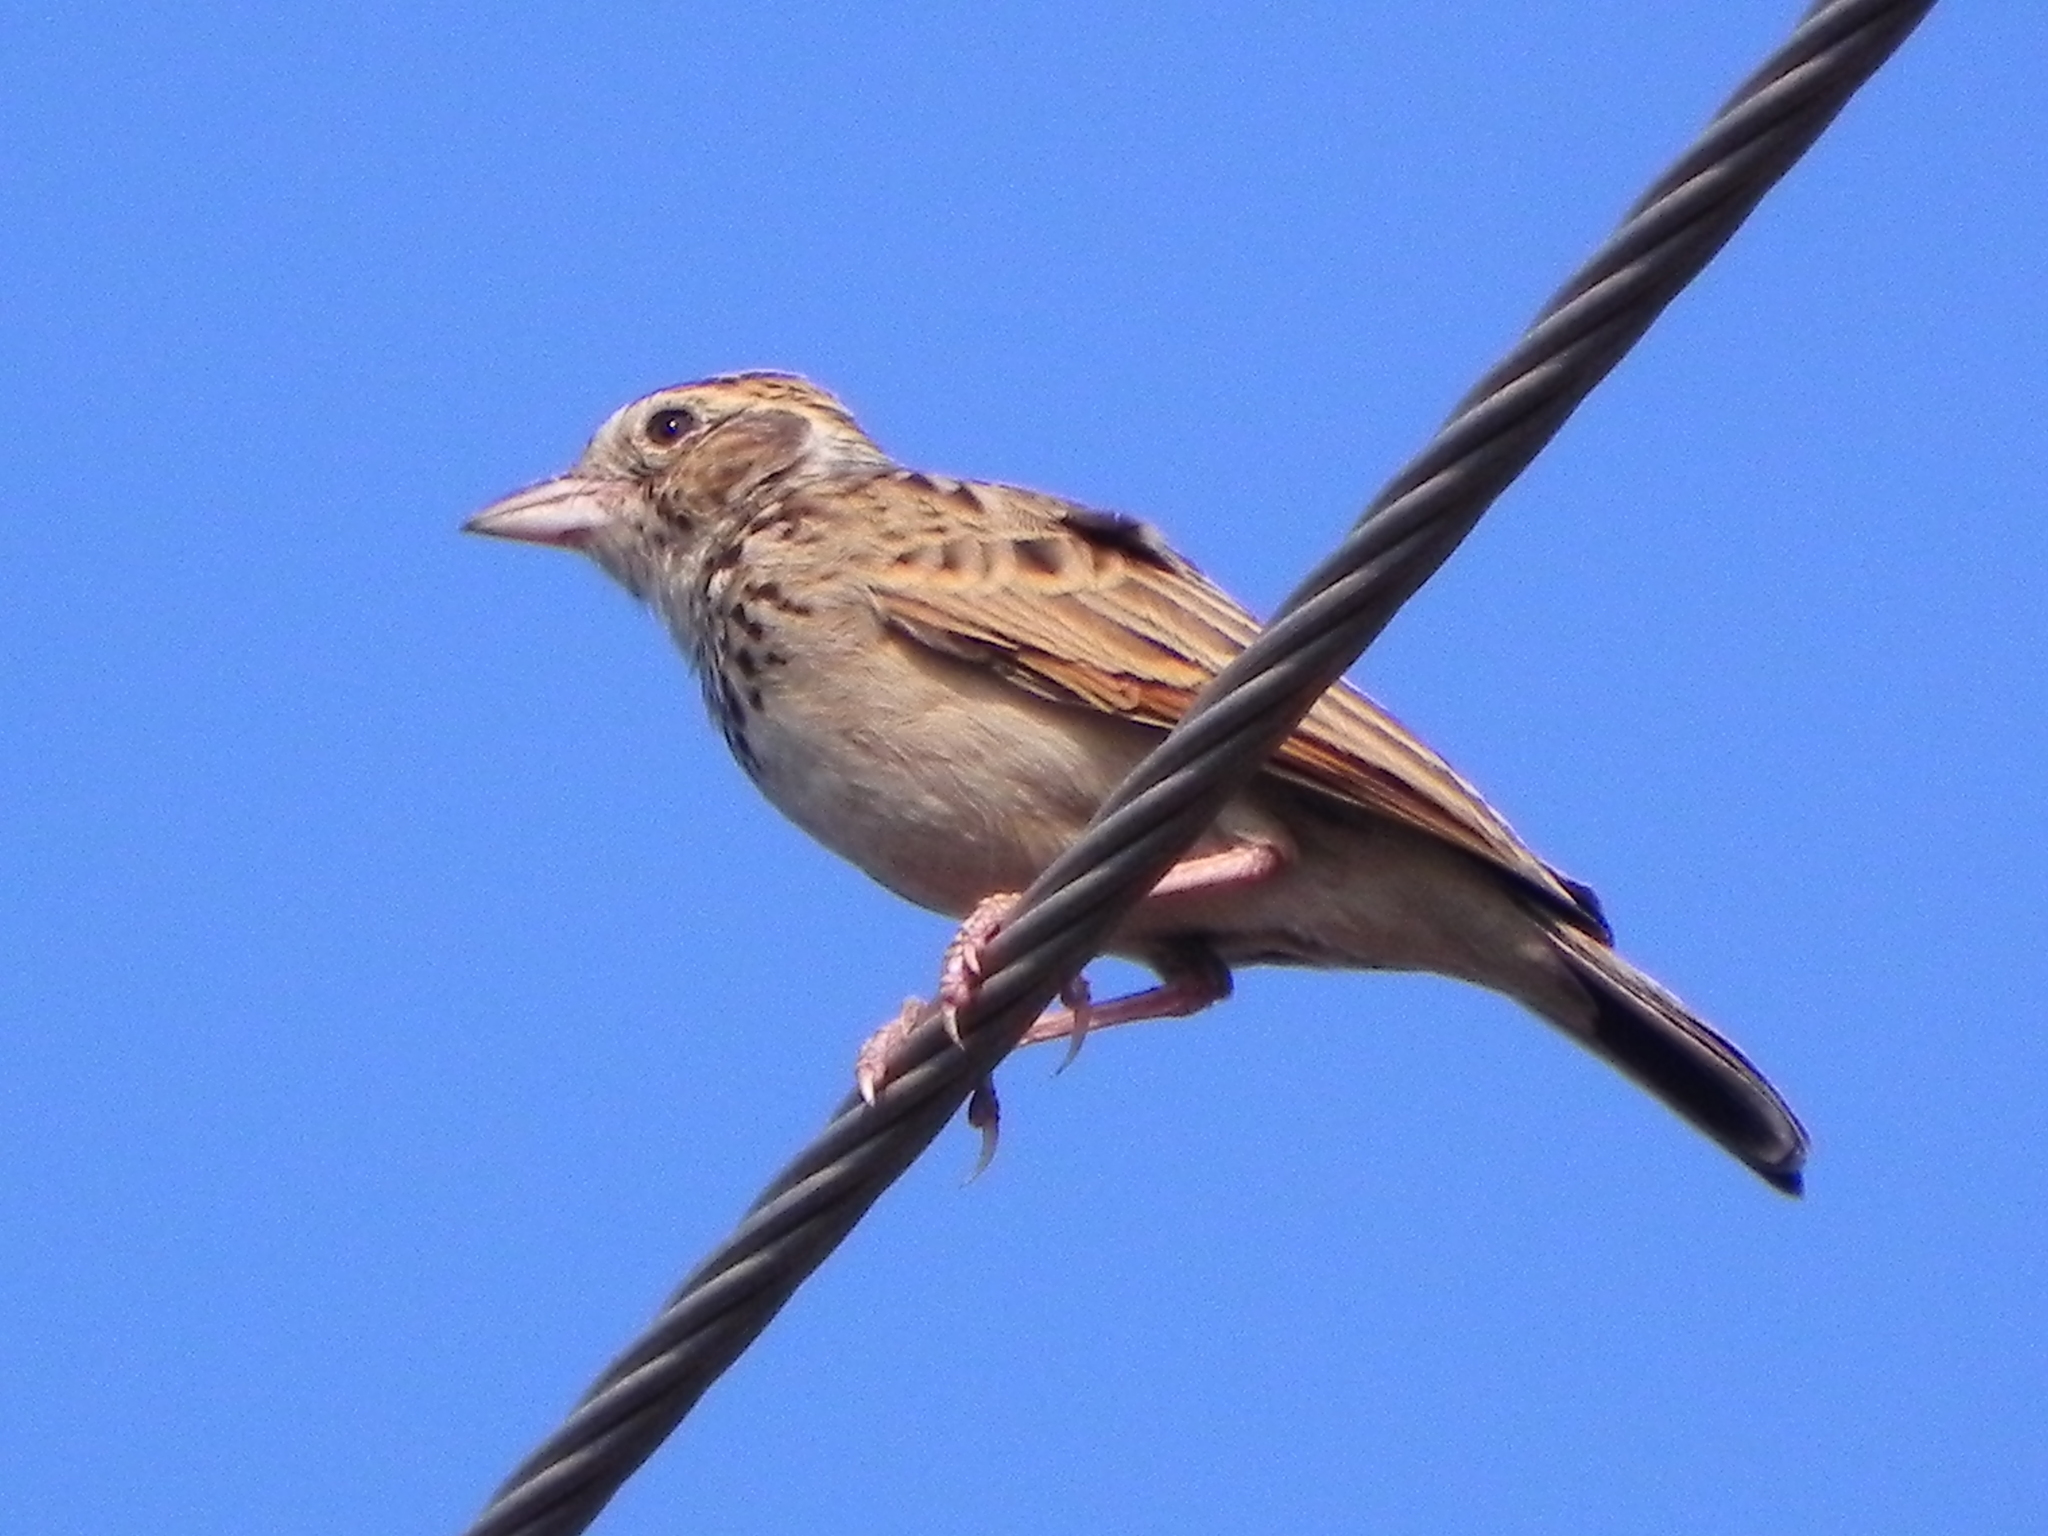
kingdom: Animalia
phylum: Chordata
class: Aves
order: Passeriformes
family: Alaudidae
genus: Mirafra
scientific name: Mirafra erythroptera
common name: Indian bush lark
